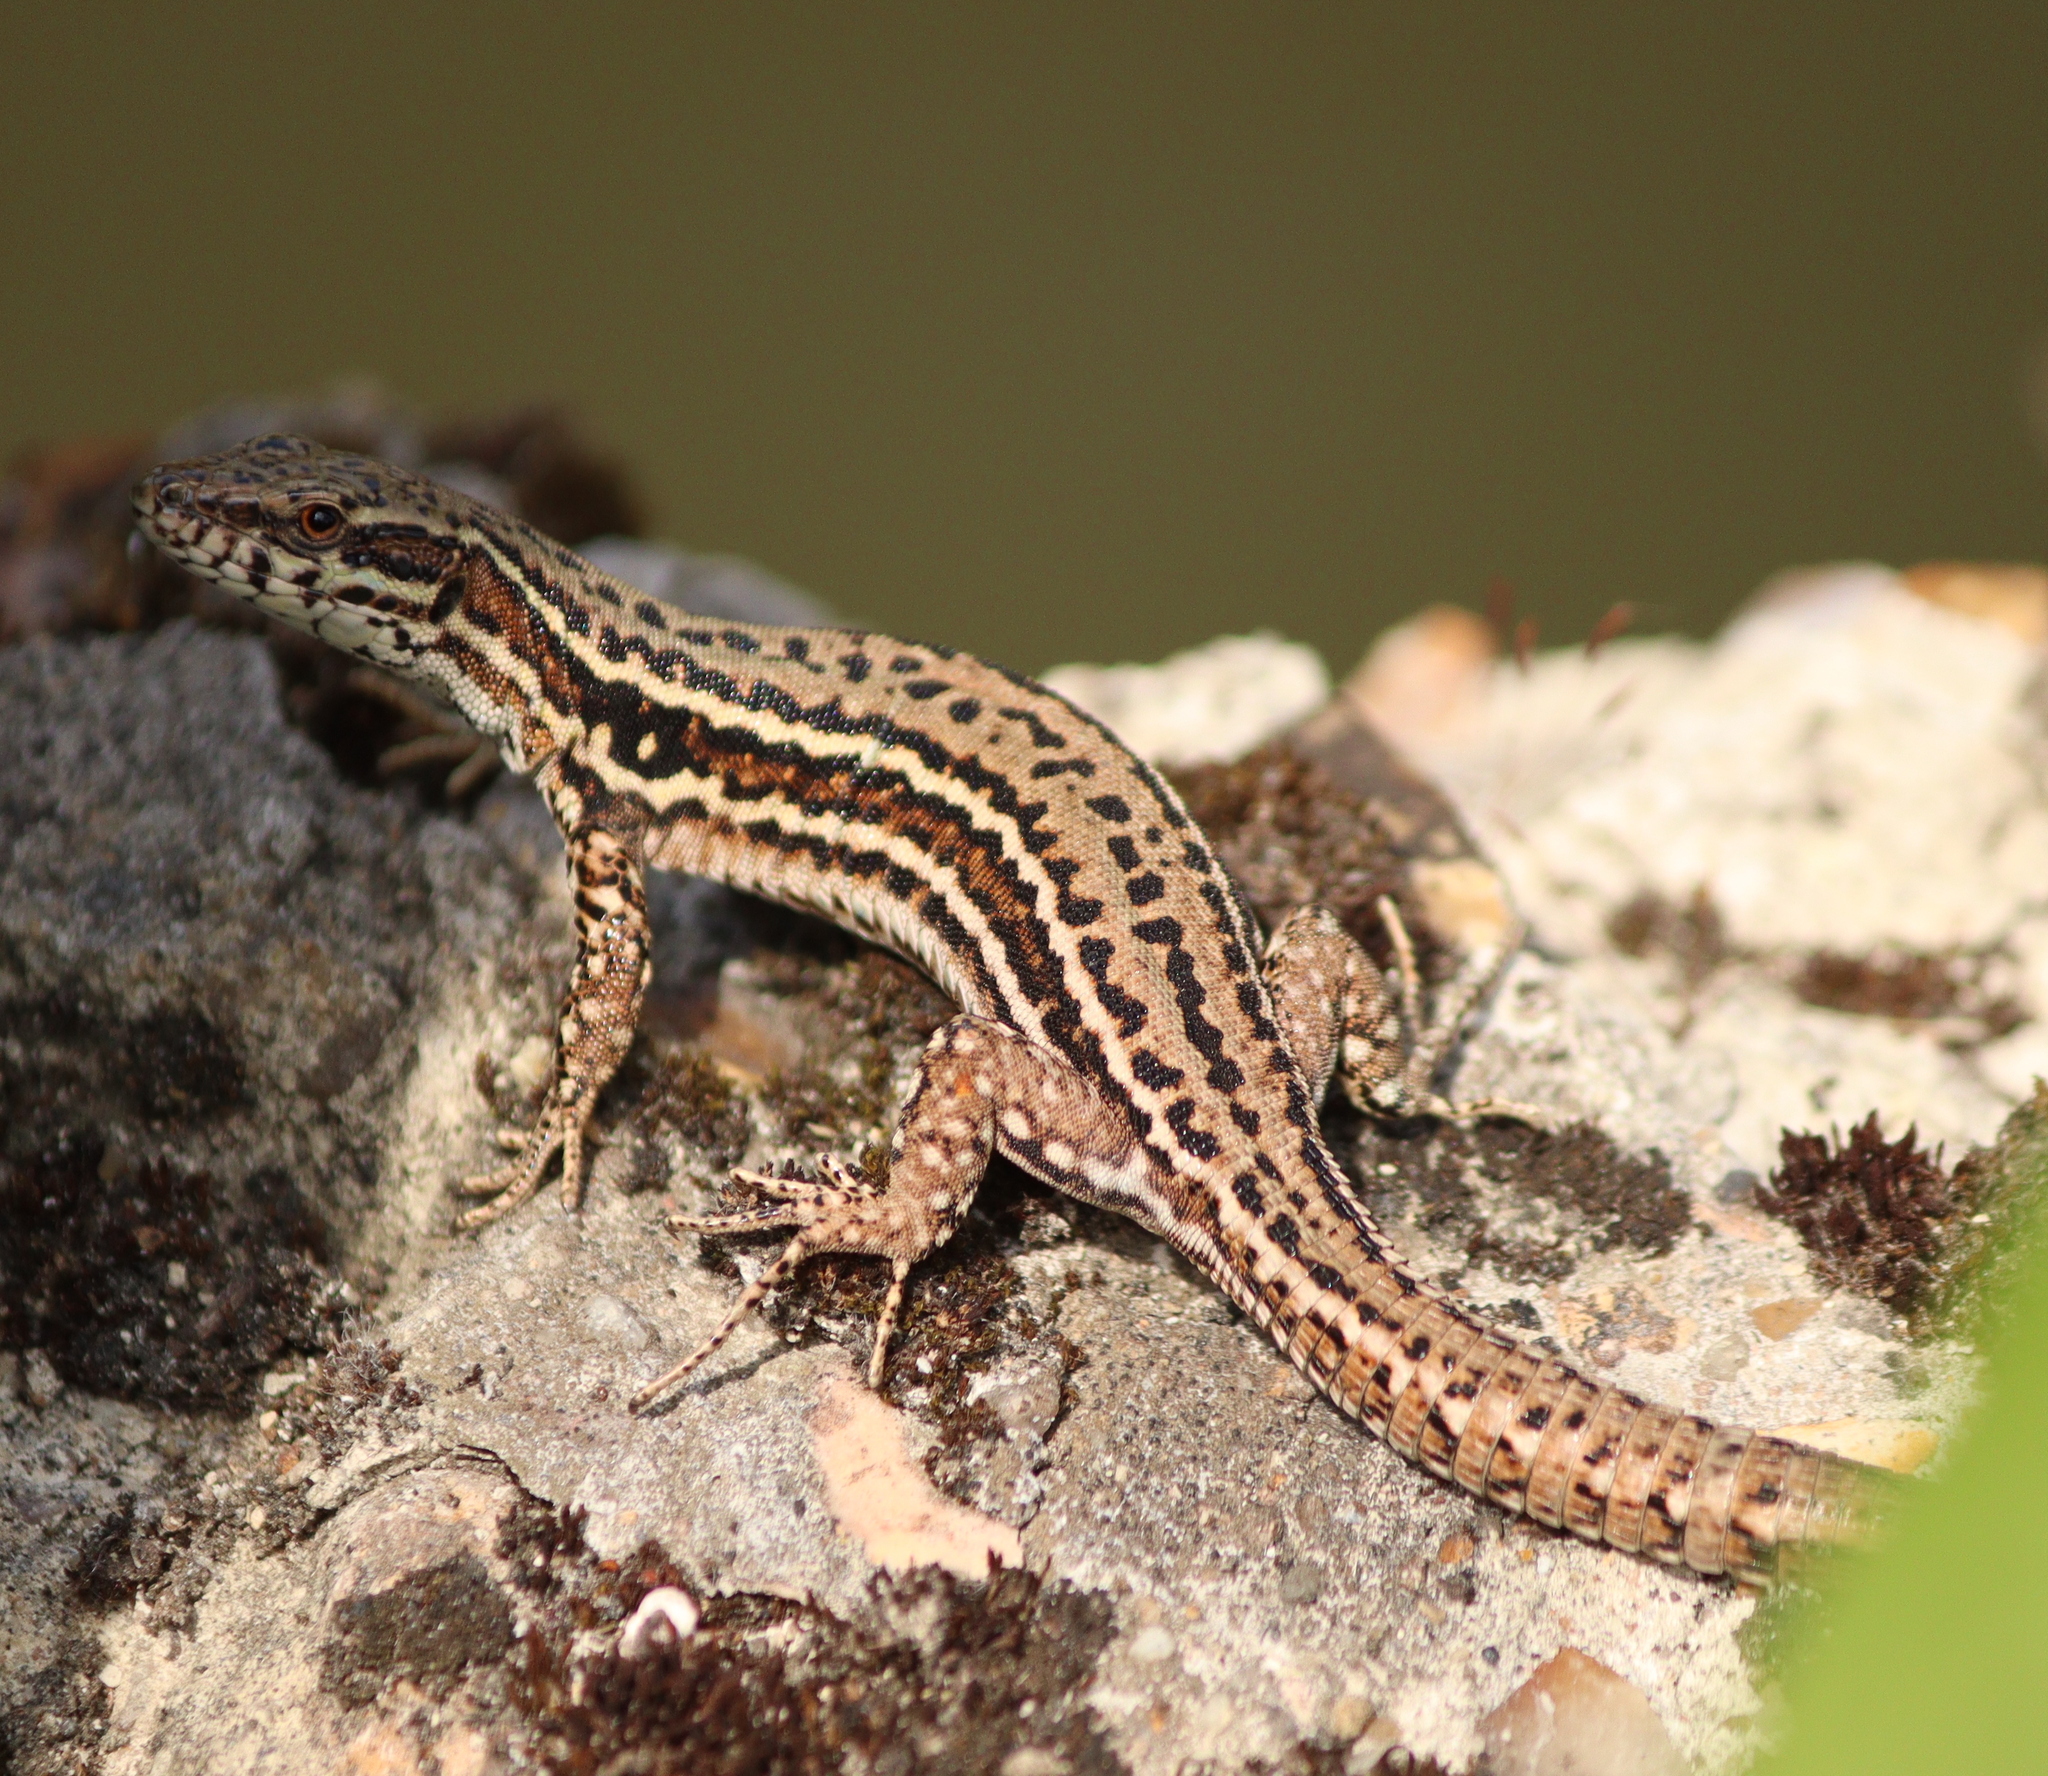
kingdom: Animalia
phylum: Chordata
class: Squamata
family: Lacertidae
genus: Podarcis
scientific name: Podarcis muralis
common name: Common wall lizard
